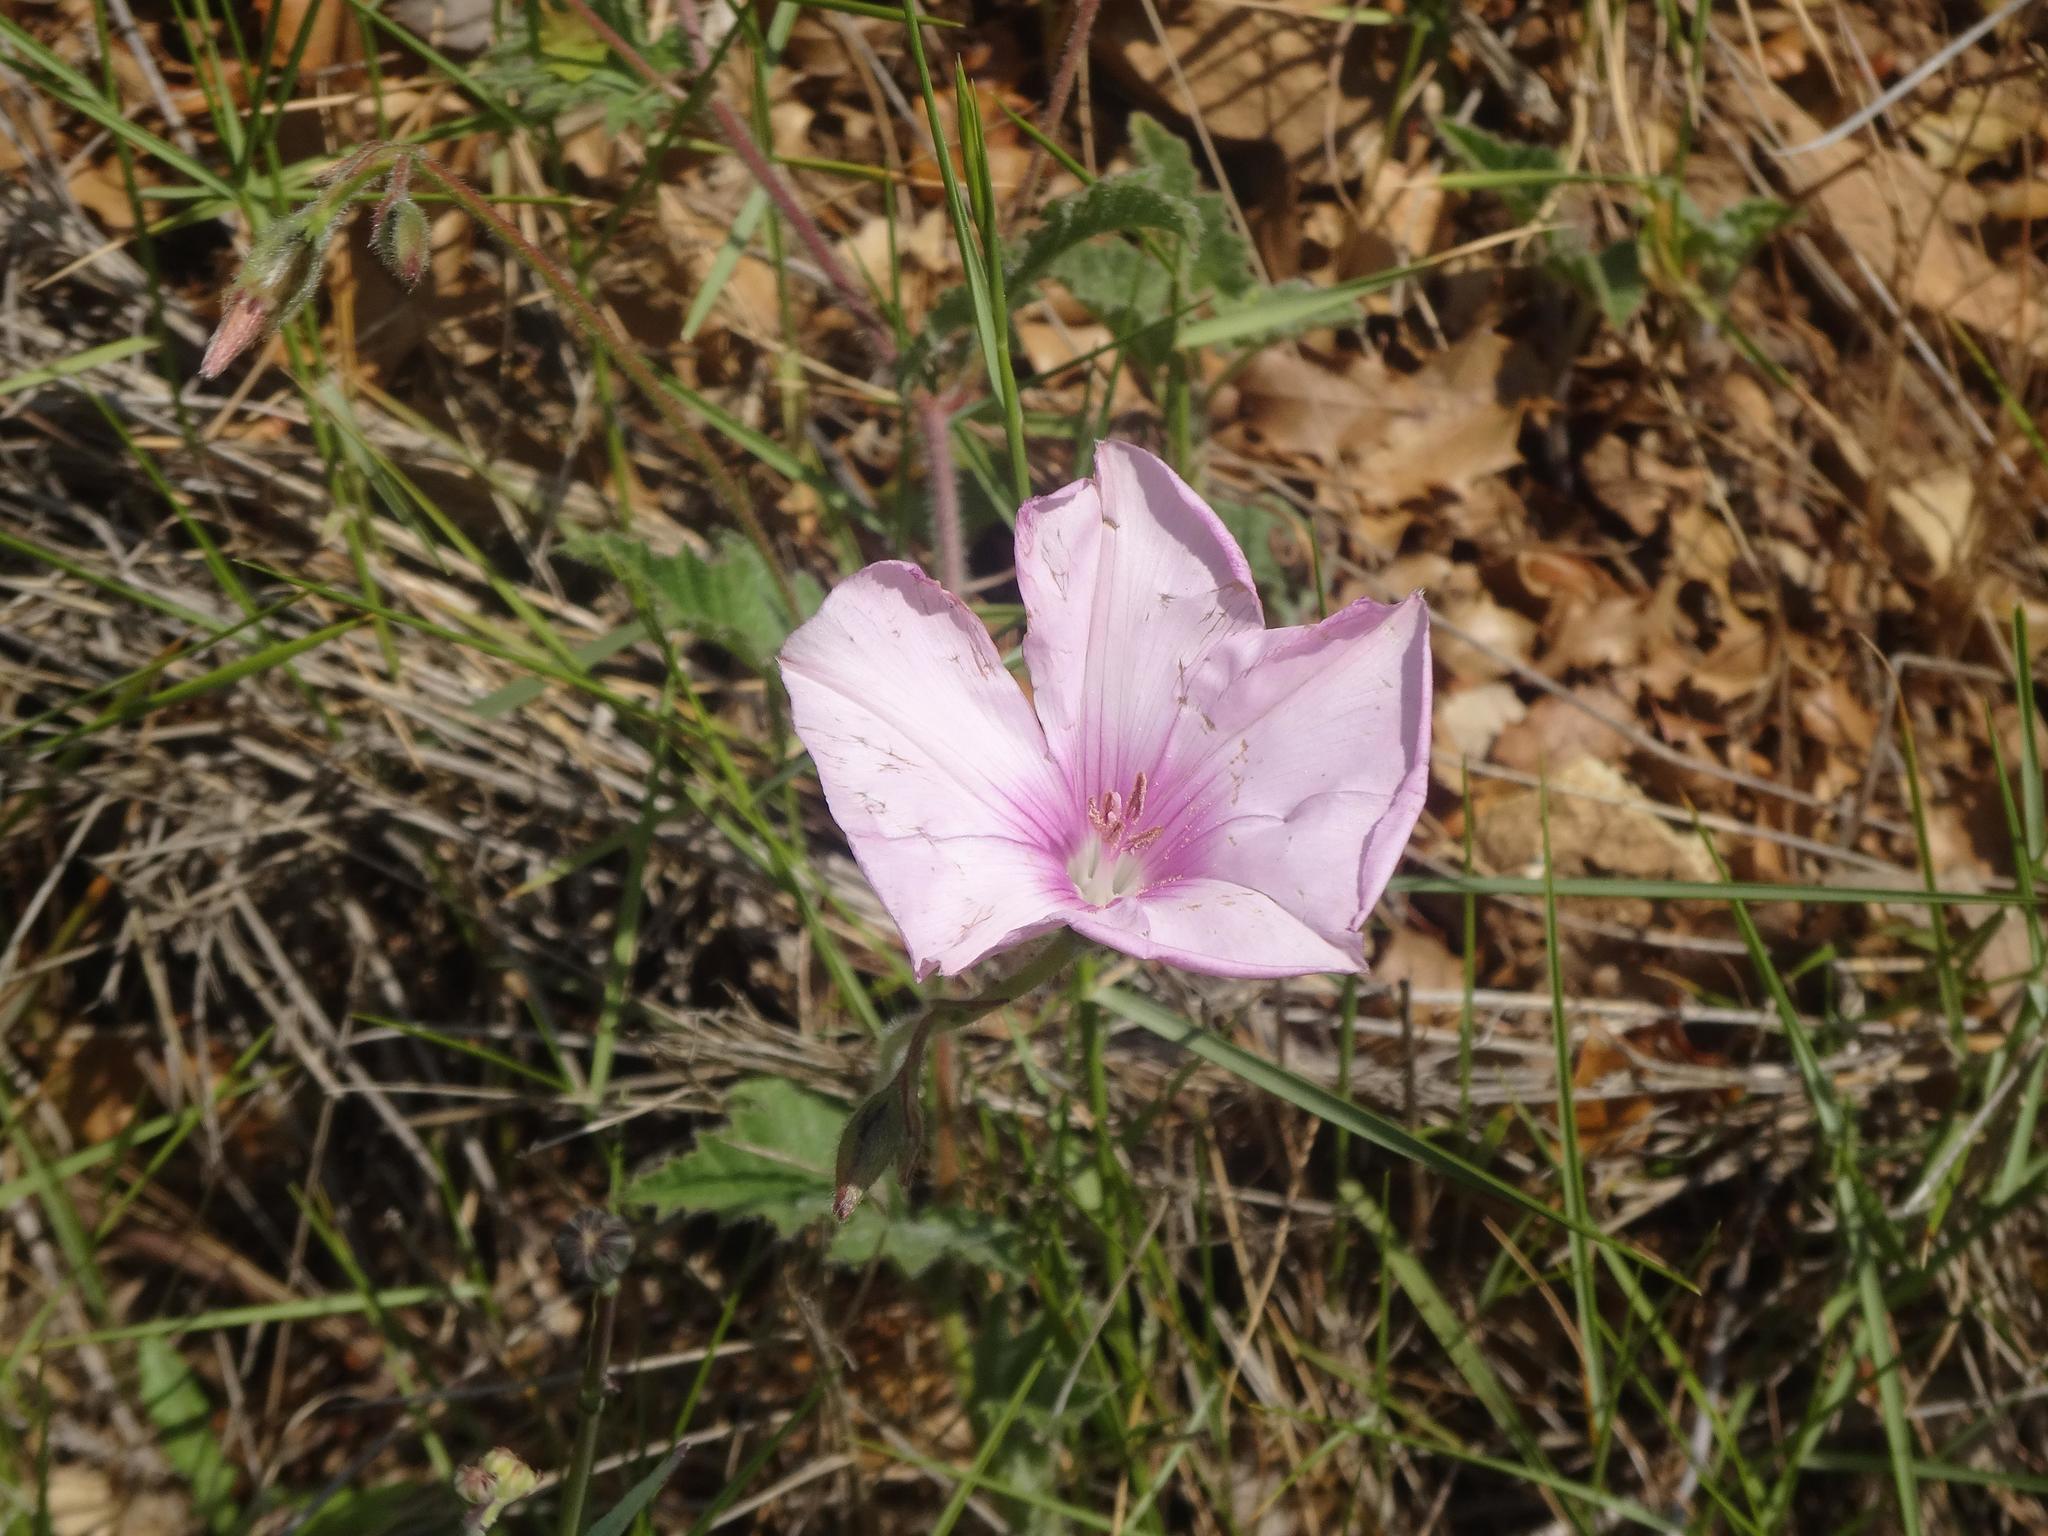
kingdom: Plantae
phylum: Tracheophyta
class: Magnoliopsida
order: Solanales
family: Convolvulaceae
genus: Convolvulus
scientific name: Convolvulus althaeoides
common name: Mallow bindweed
